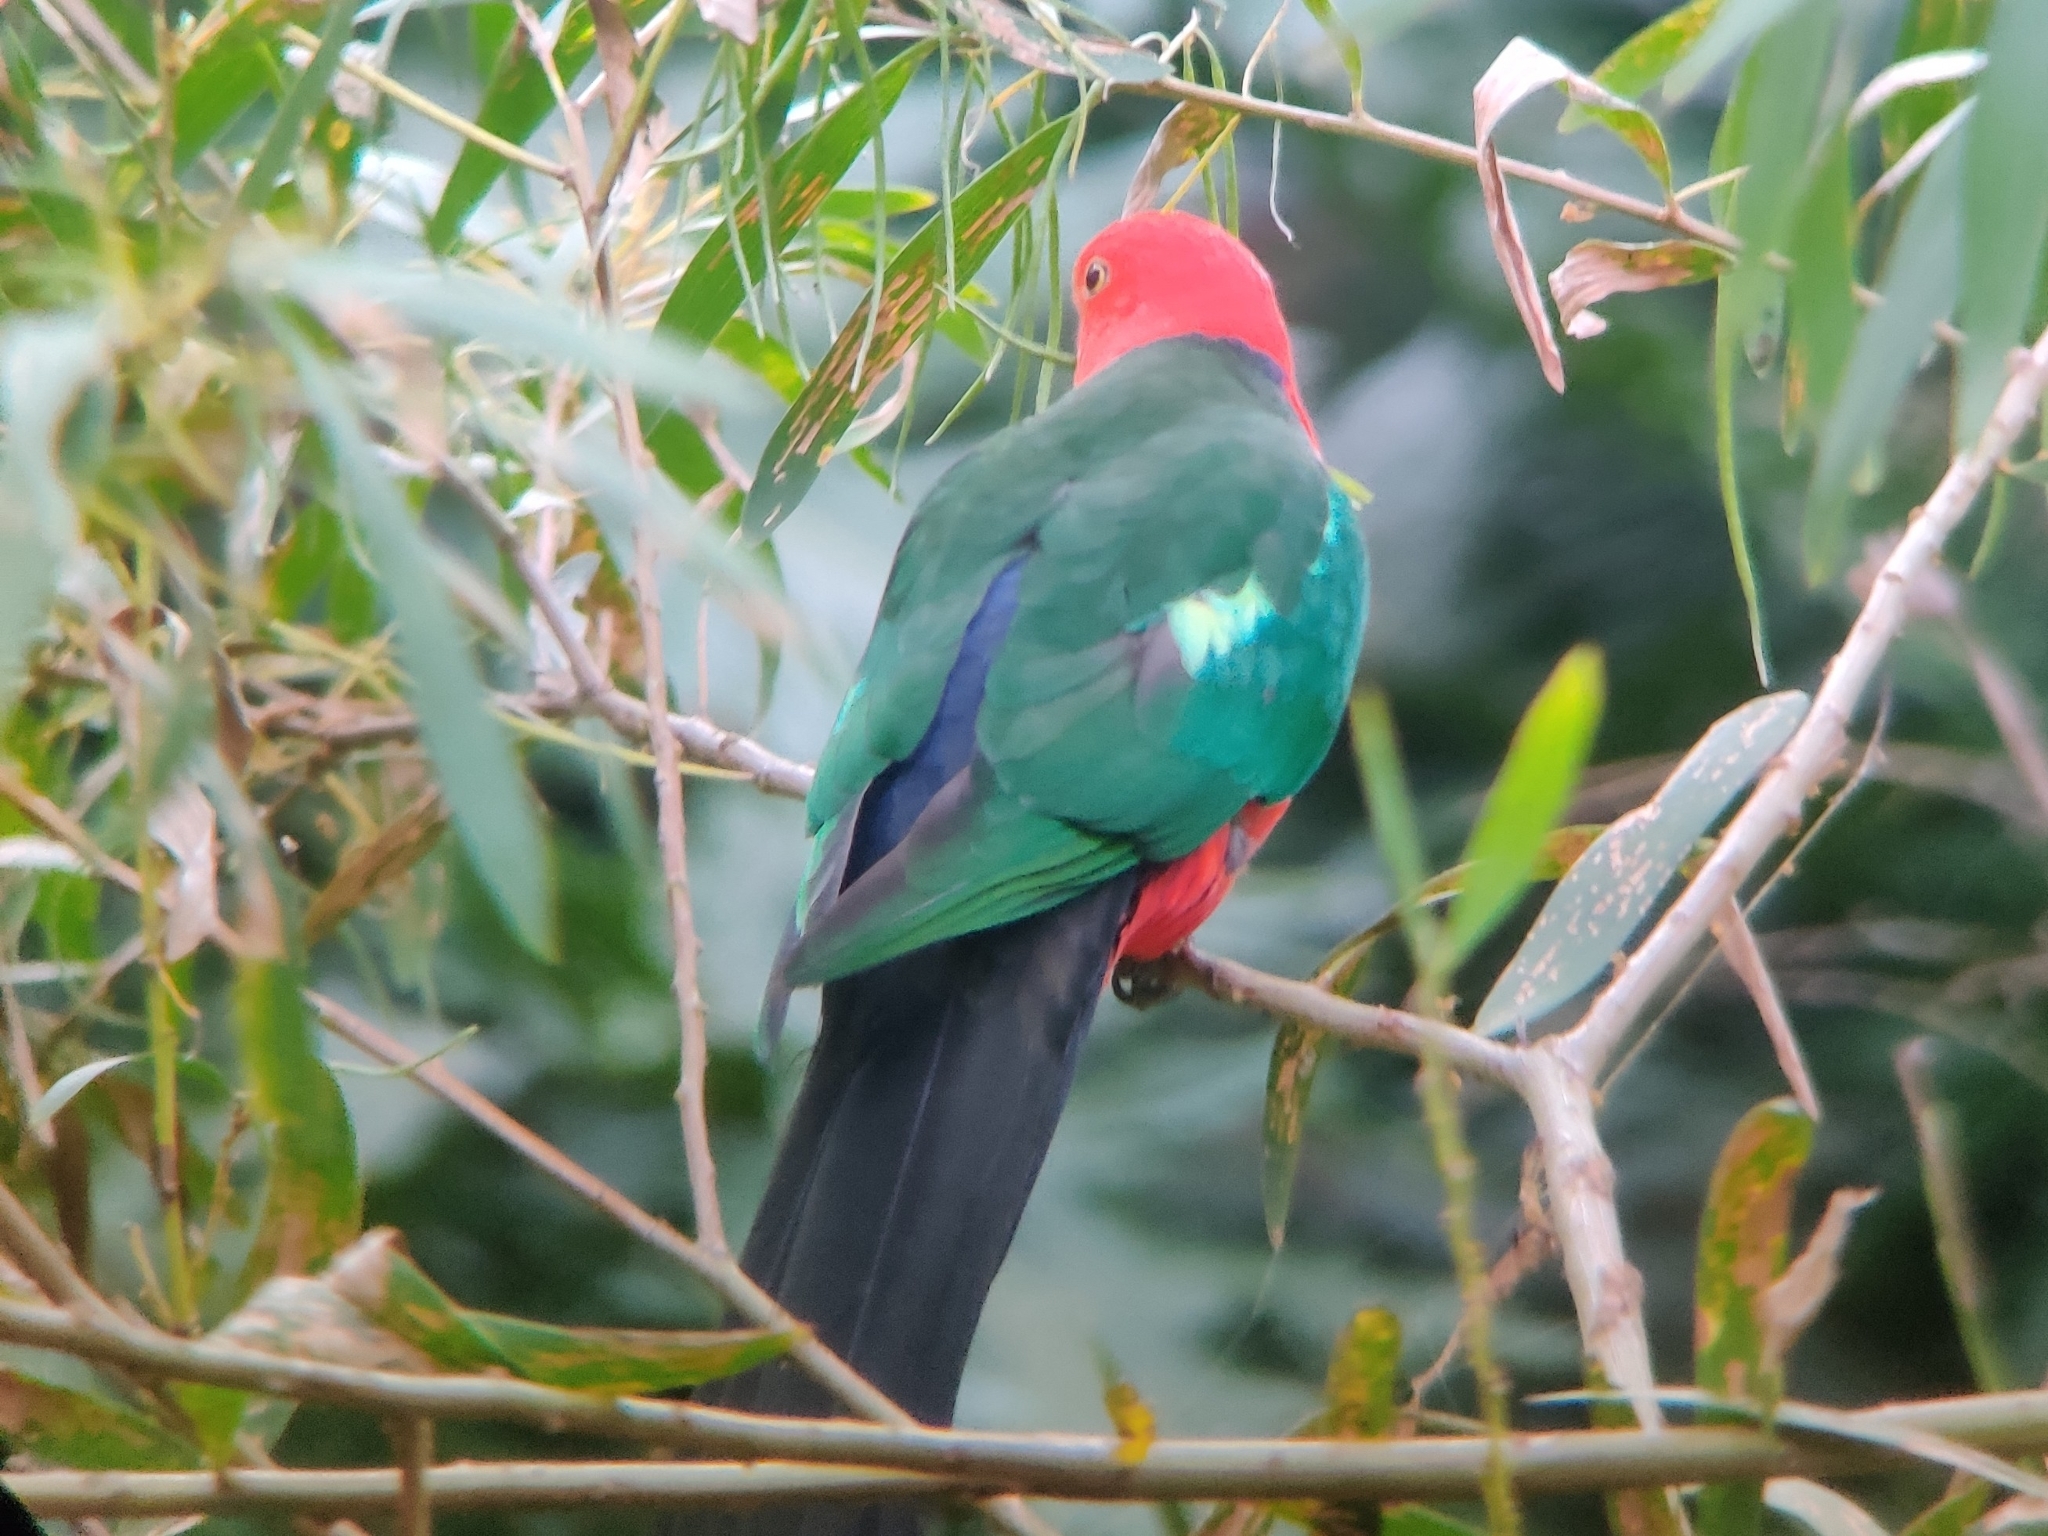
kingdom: Animalia
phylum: Chordata
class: Aves
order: Psittaciformes
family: Psittacidae
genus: Alisterus
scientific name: Alisterus scapularis
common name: Australian king parrot
